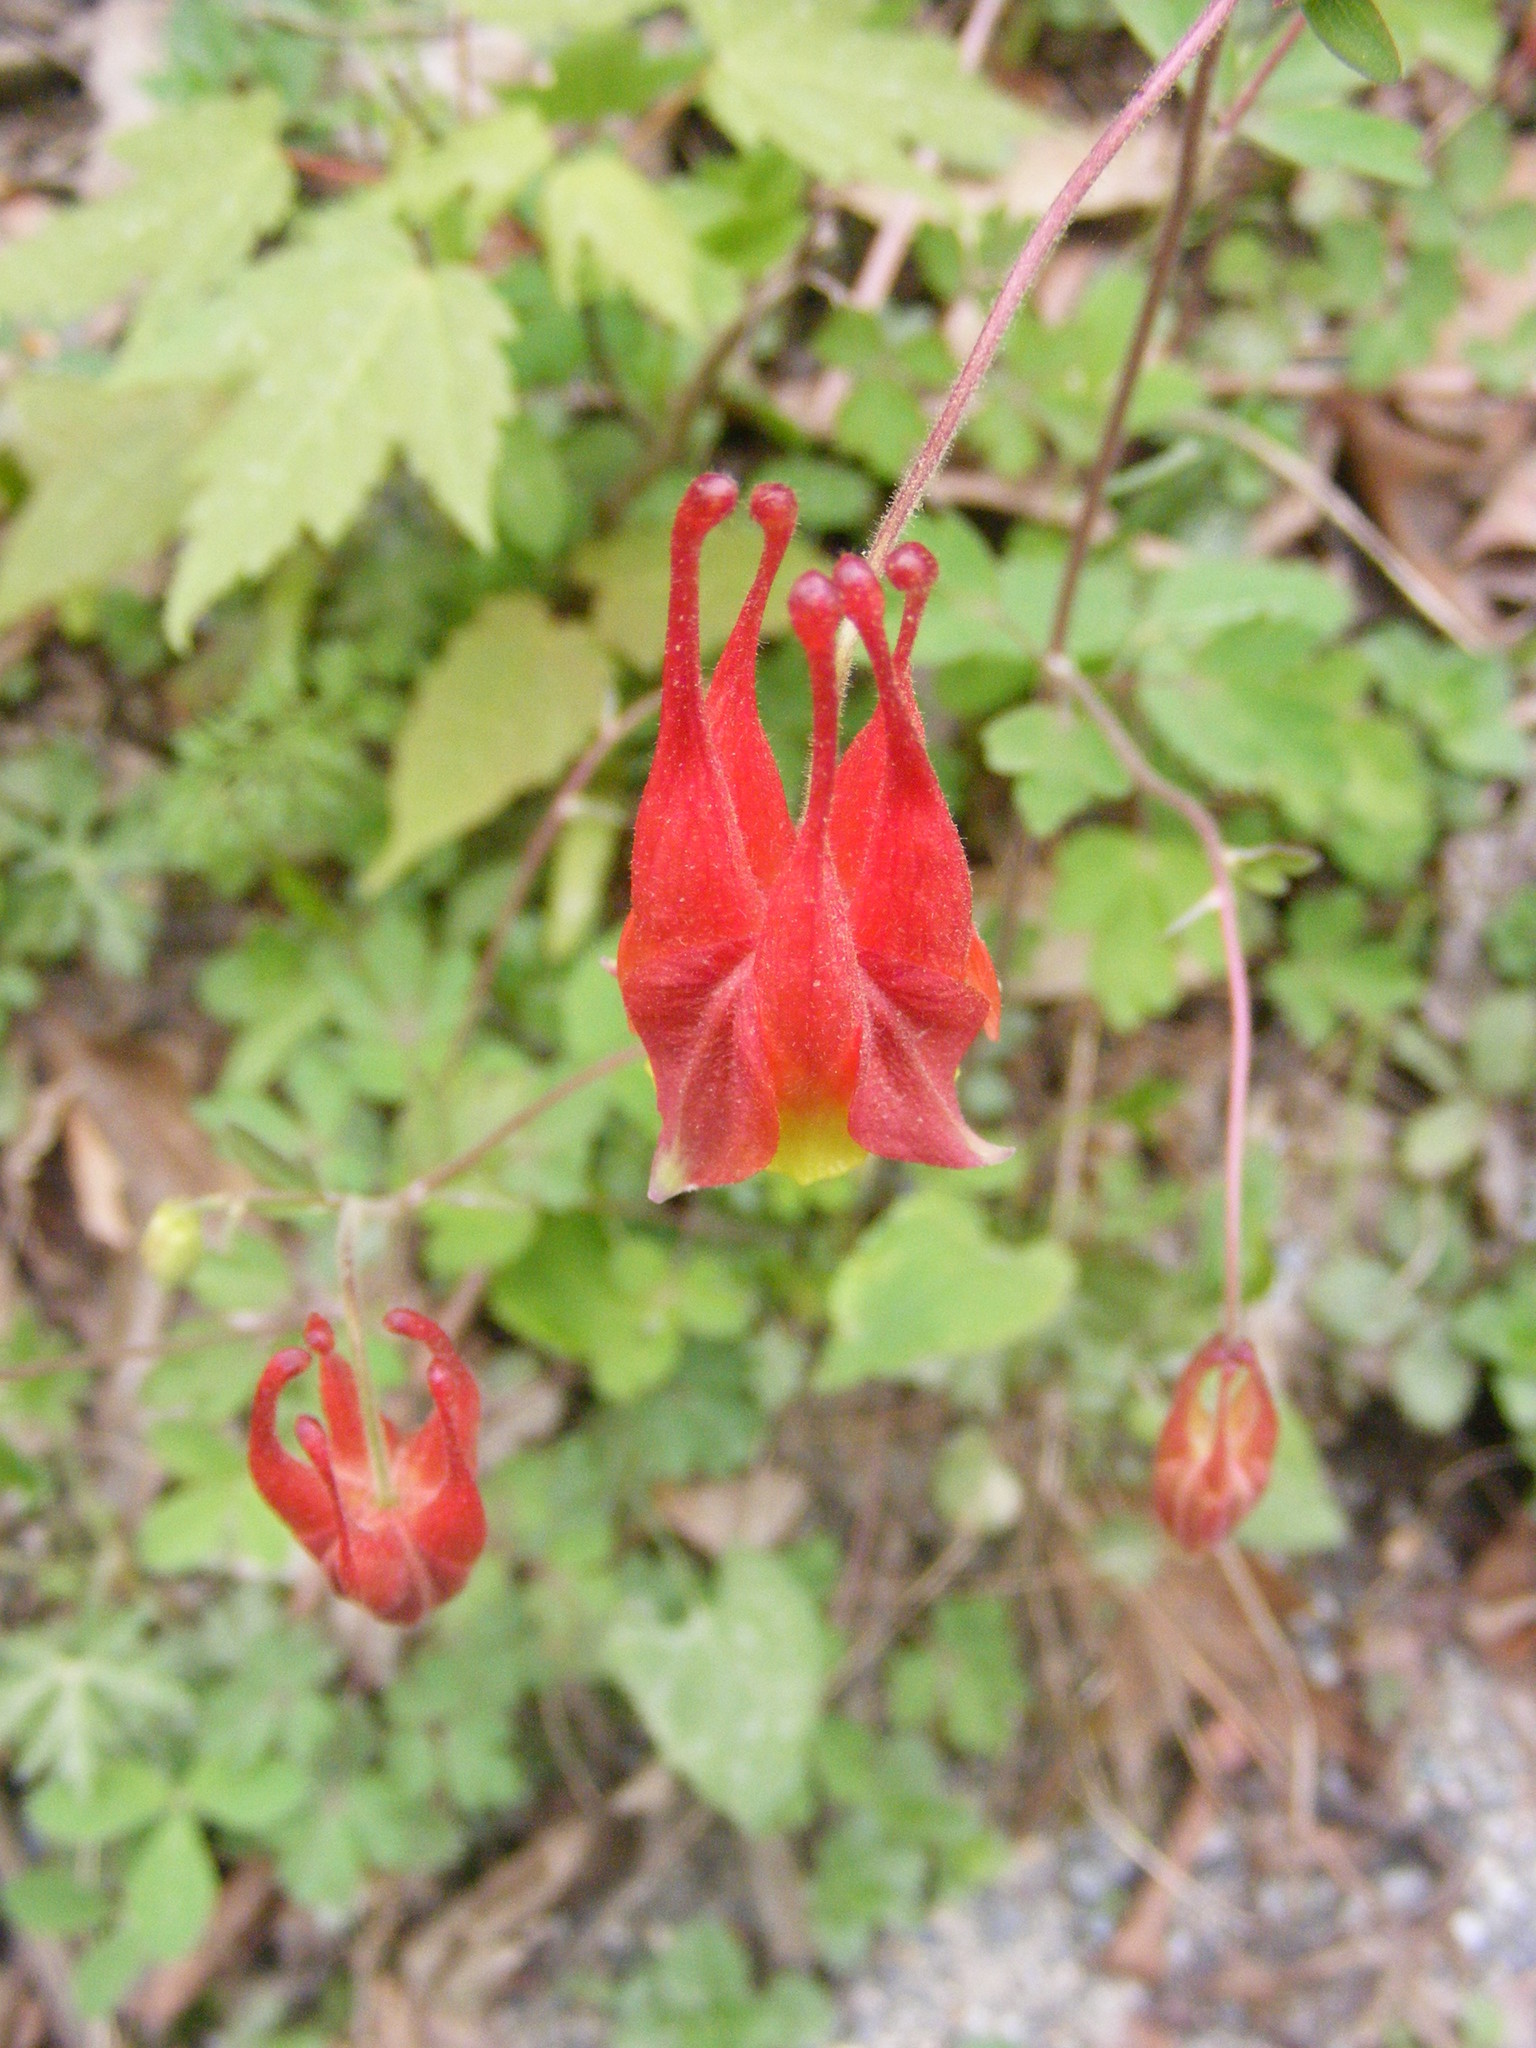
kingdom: Plantae
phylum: Tracheophyta
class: Magnoliopsida
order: Ranunculales
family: Ranunculaceae
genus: Aquilegia
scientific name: Aquilegia canadensis
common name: American columbine
